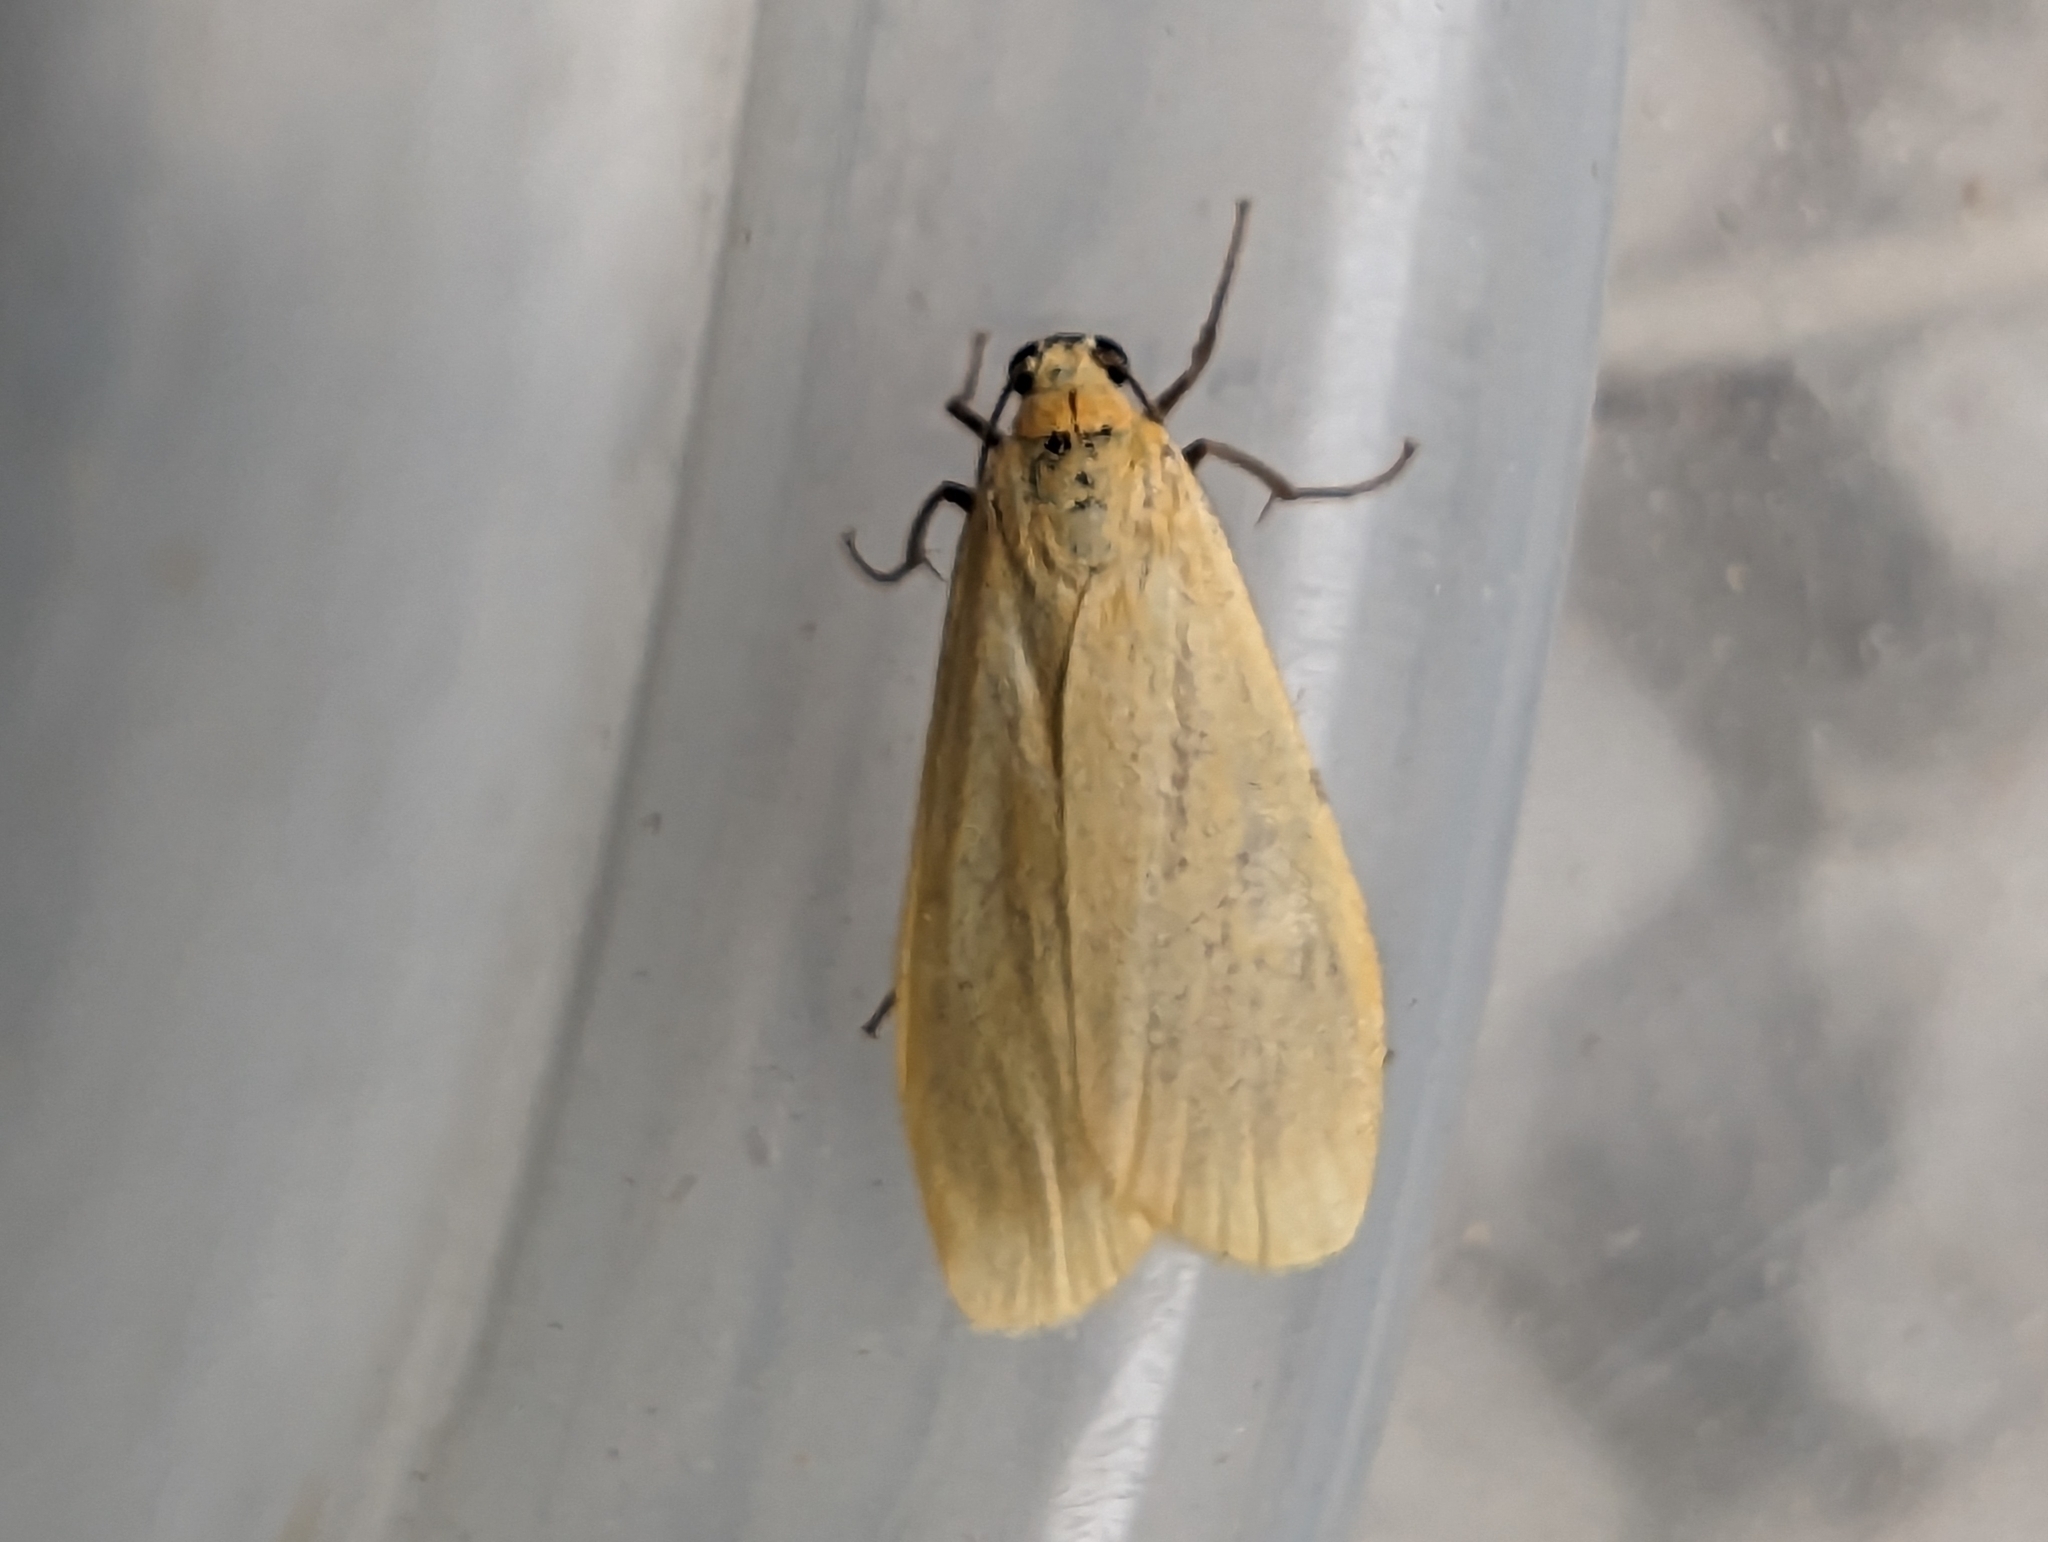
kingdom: Animalia
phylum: Arthropoda
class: Insecta
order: Lepidoptera
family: Erebidae
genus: Wittia
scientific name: Wittia sororcula
